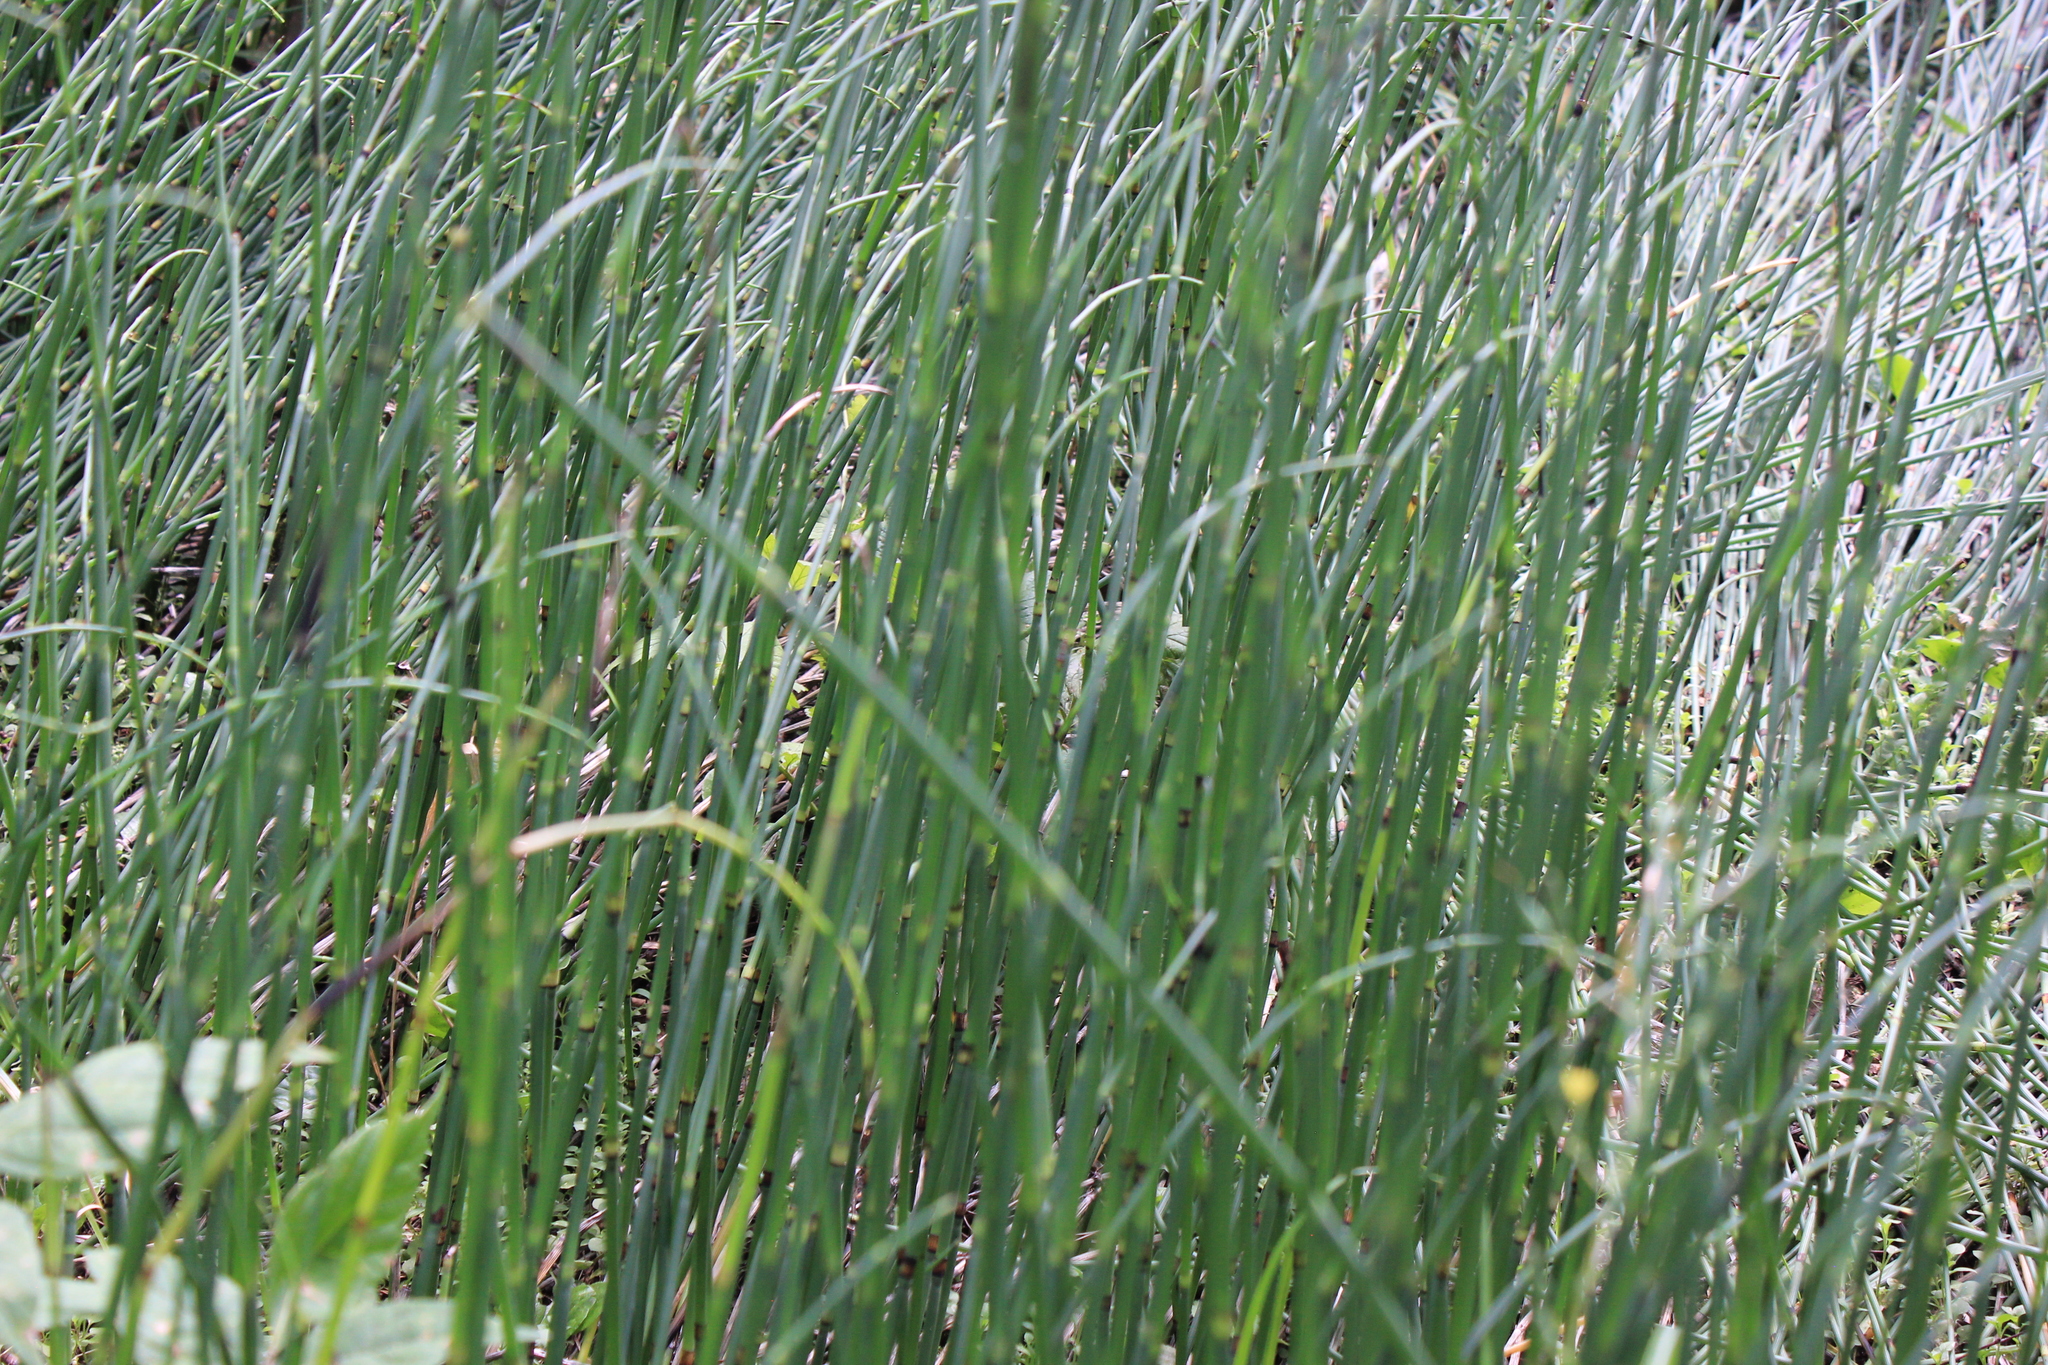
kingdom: Plantae
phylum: Tracheophyta
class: Polypodiopsida
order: Equisetales
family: Equisetaceae
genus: Equisetum
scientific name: Equisetum hyemale
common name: Rough horsetail
